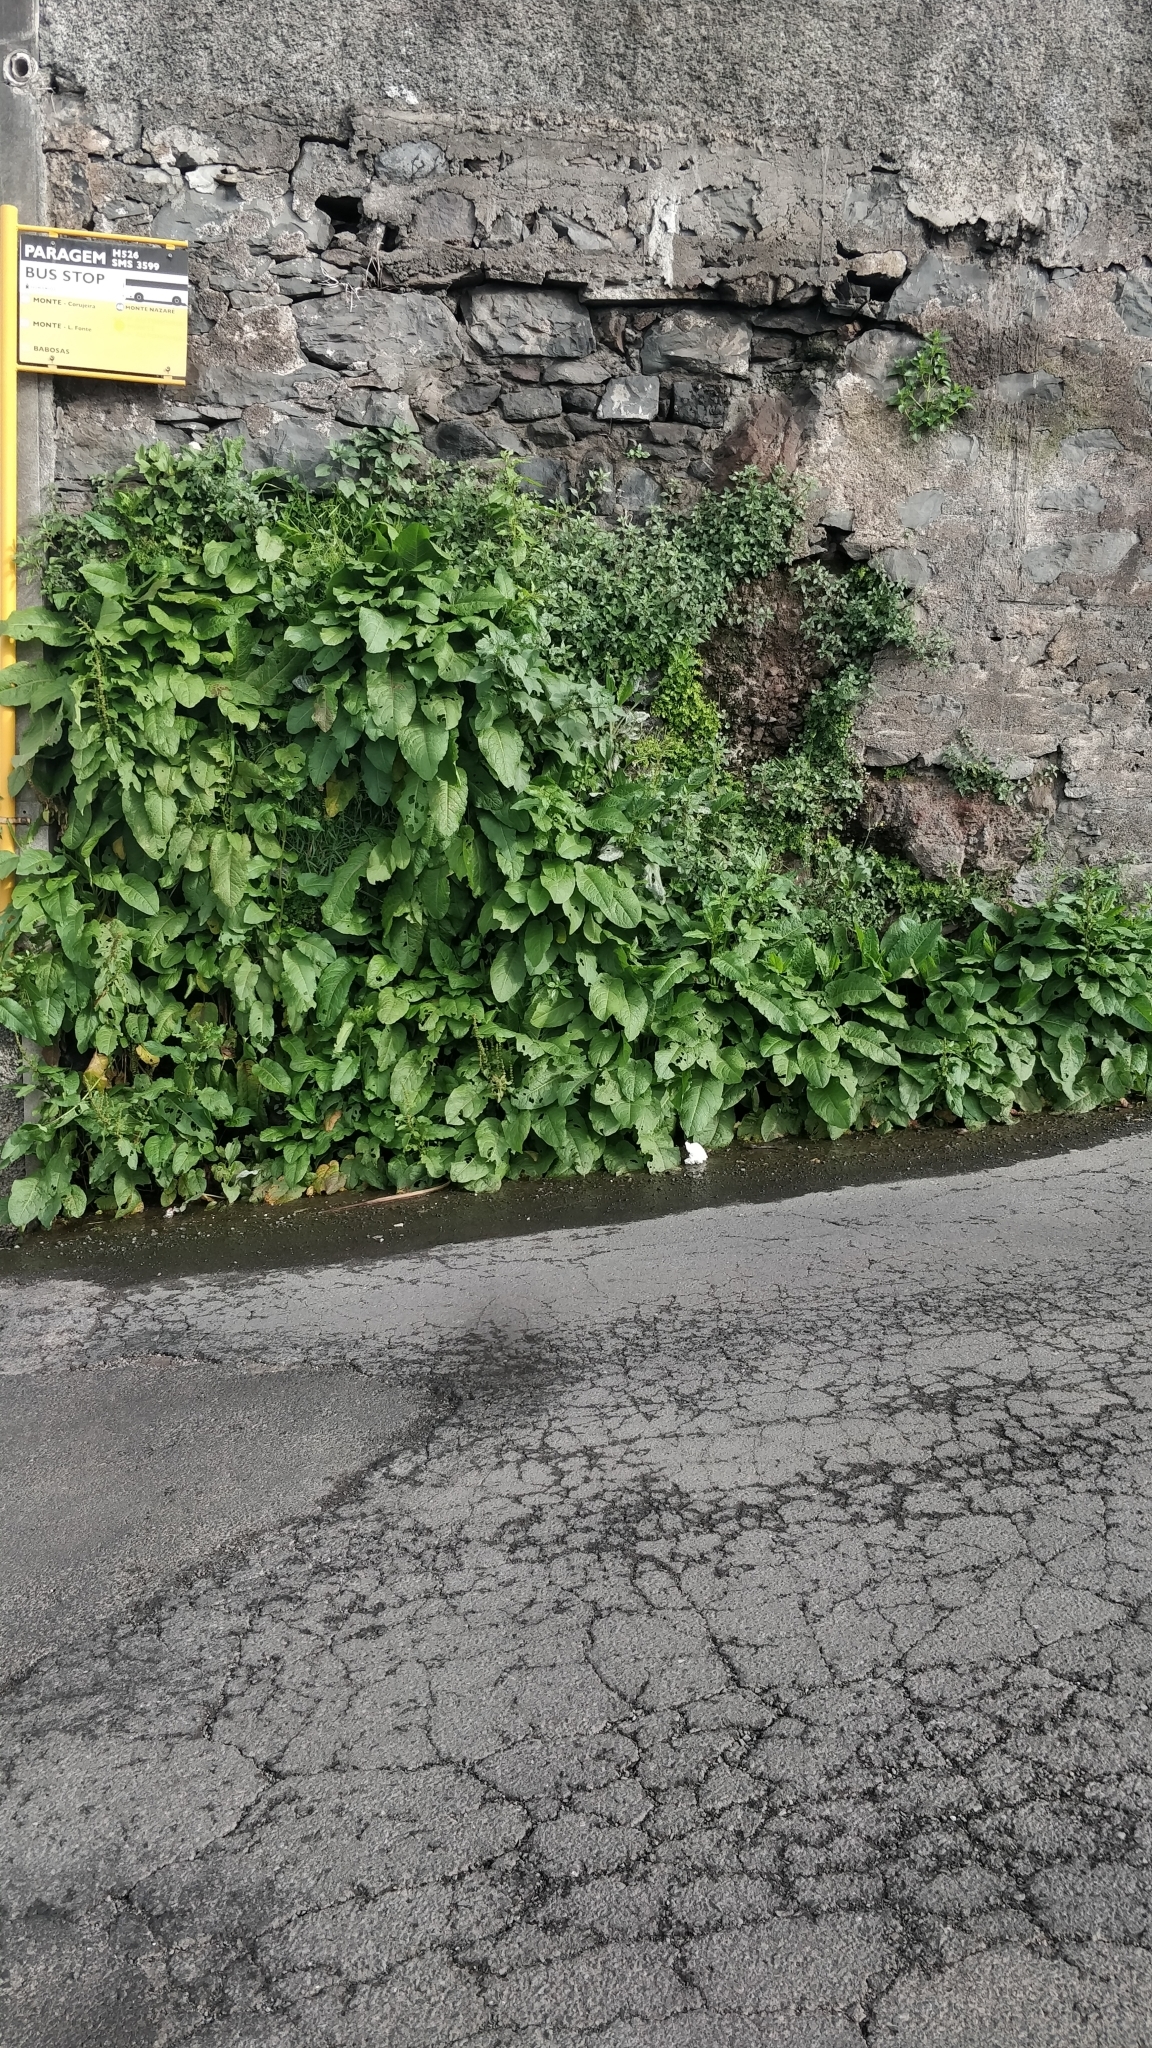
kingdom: Plantae
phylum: Tracheophyta
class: Magnoliopsida
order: Caryophyllales
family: Polygonaceae
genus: Rumex
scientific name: Rumex obtusifolius
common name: Bitter dock
